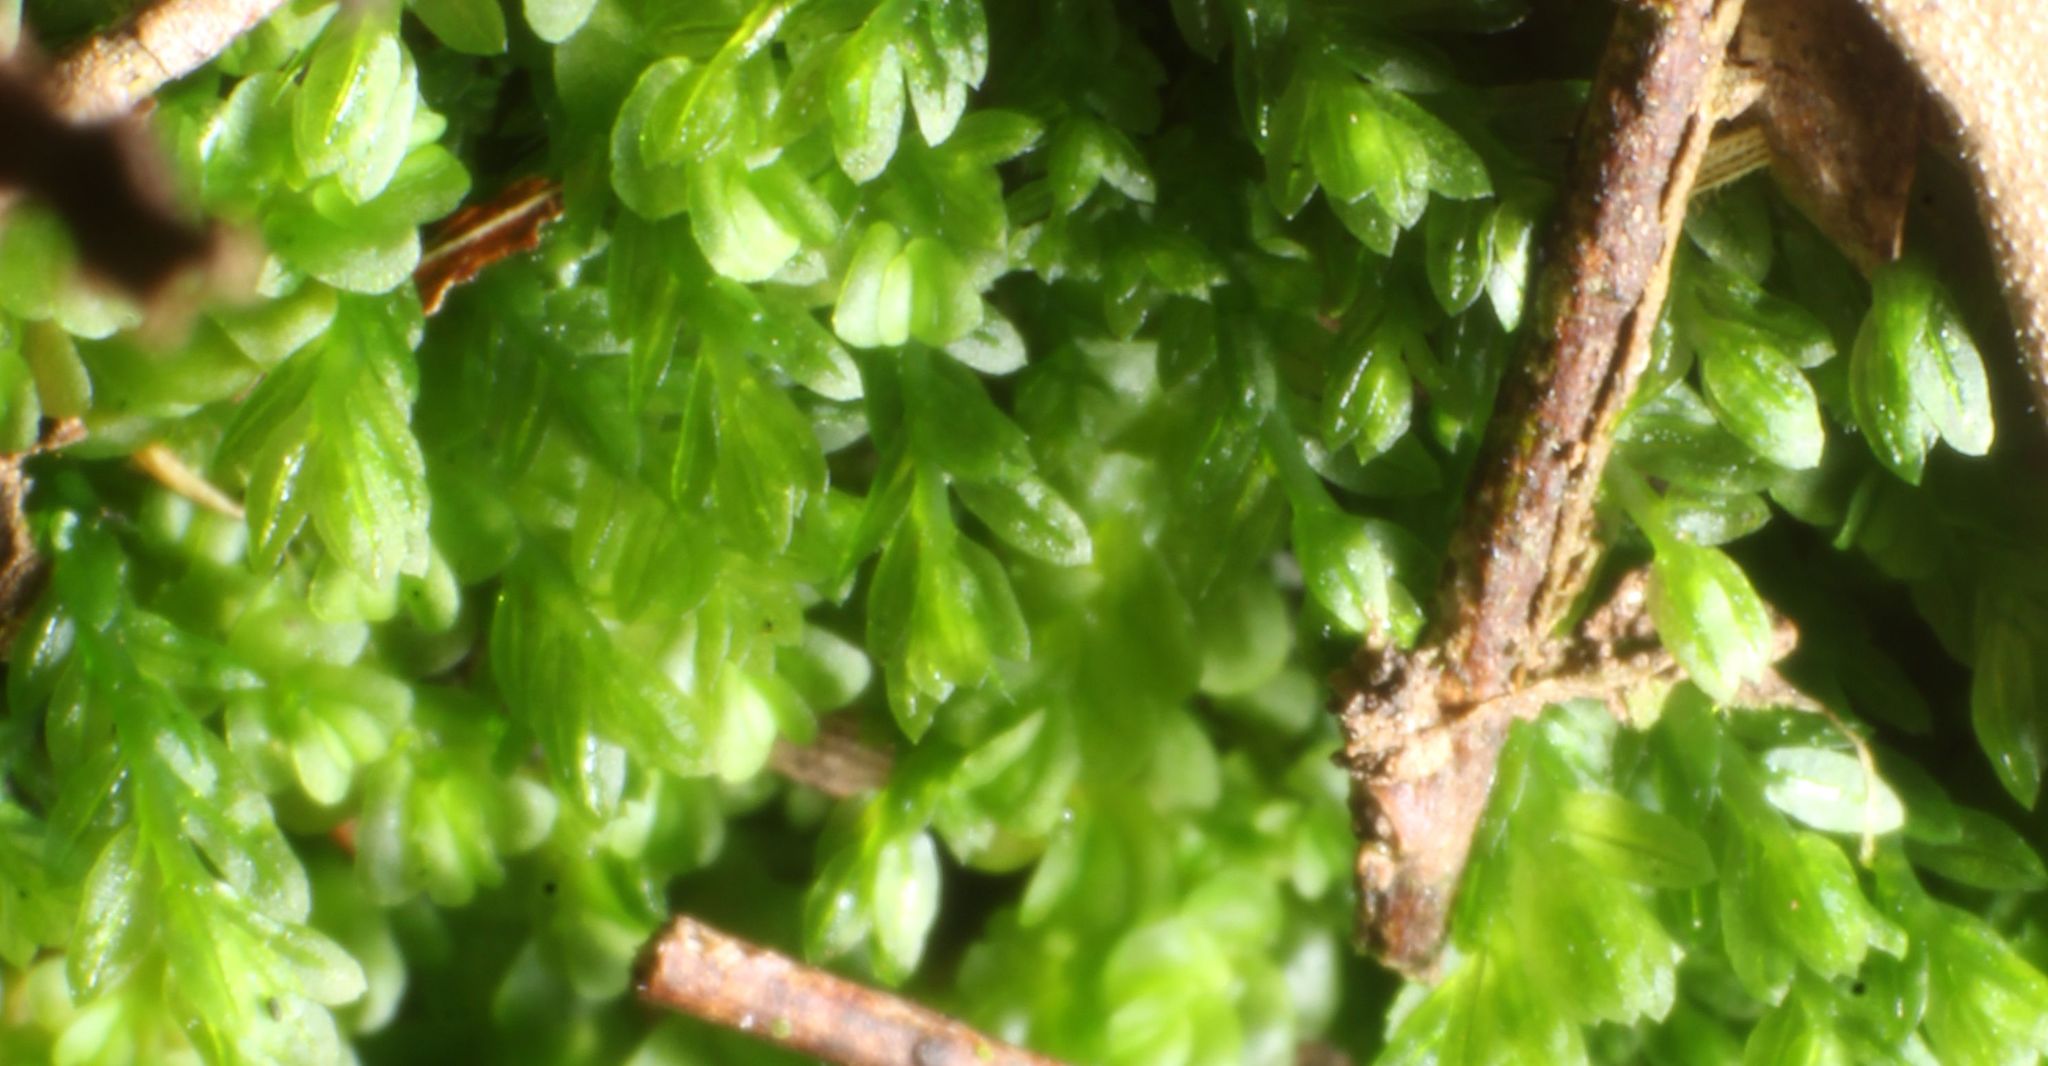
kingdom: Plantae
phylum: Bryophyta
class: Bryopsida
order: Pottiales
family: Mitteniaceae
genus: Mittenia
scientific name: Mittenia plumula
